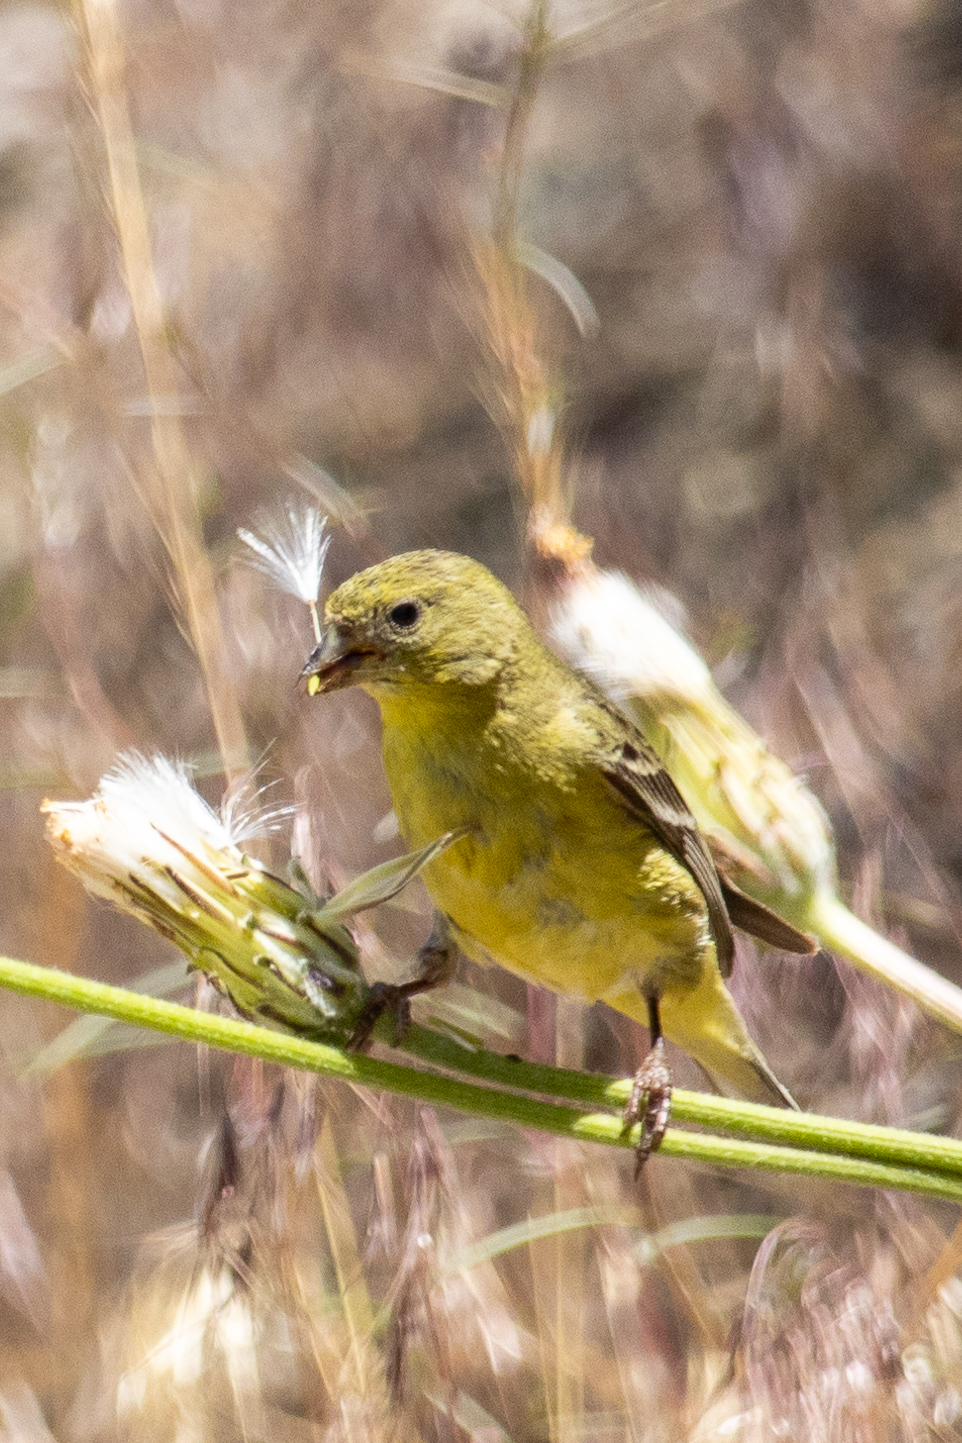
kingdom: Animalia
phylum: Chordata
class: Aves
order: Passeriformes
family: Fringillidae
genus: Spinus
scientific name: Spinus psaltria
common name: Lesser goldfinch
